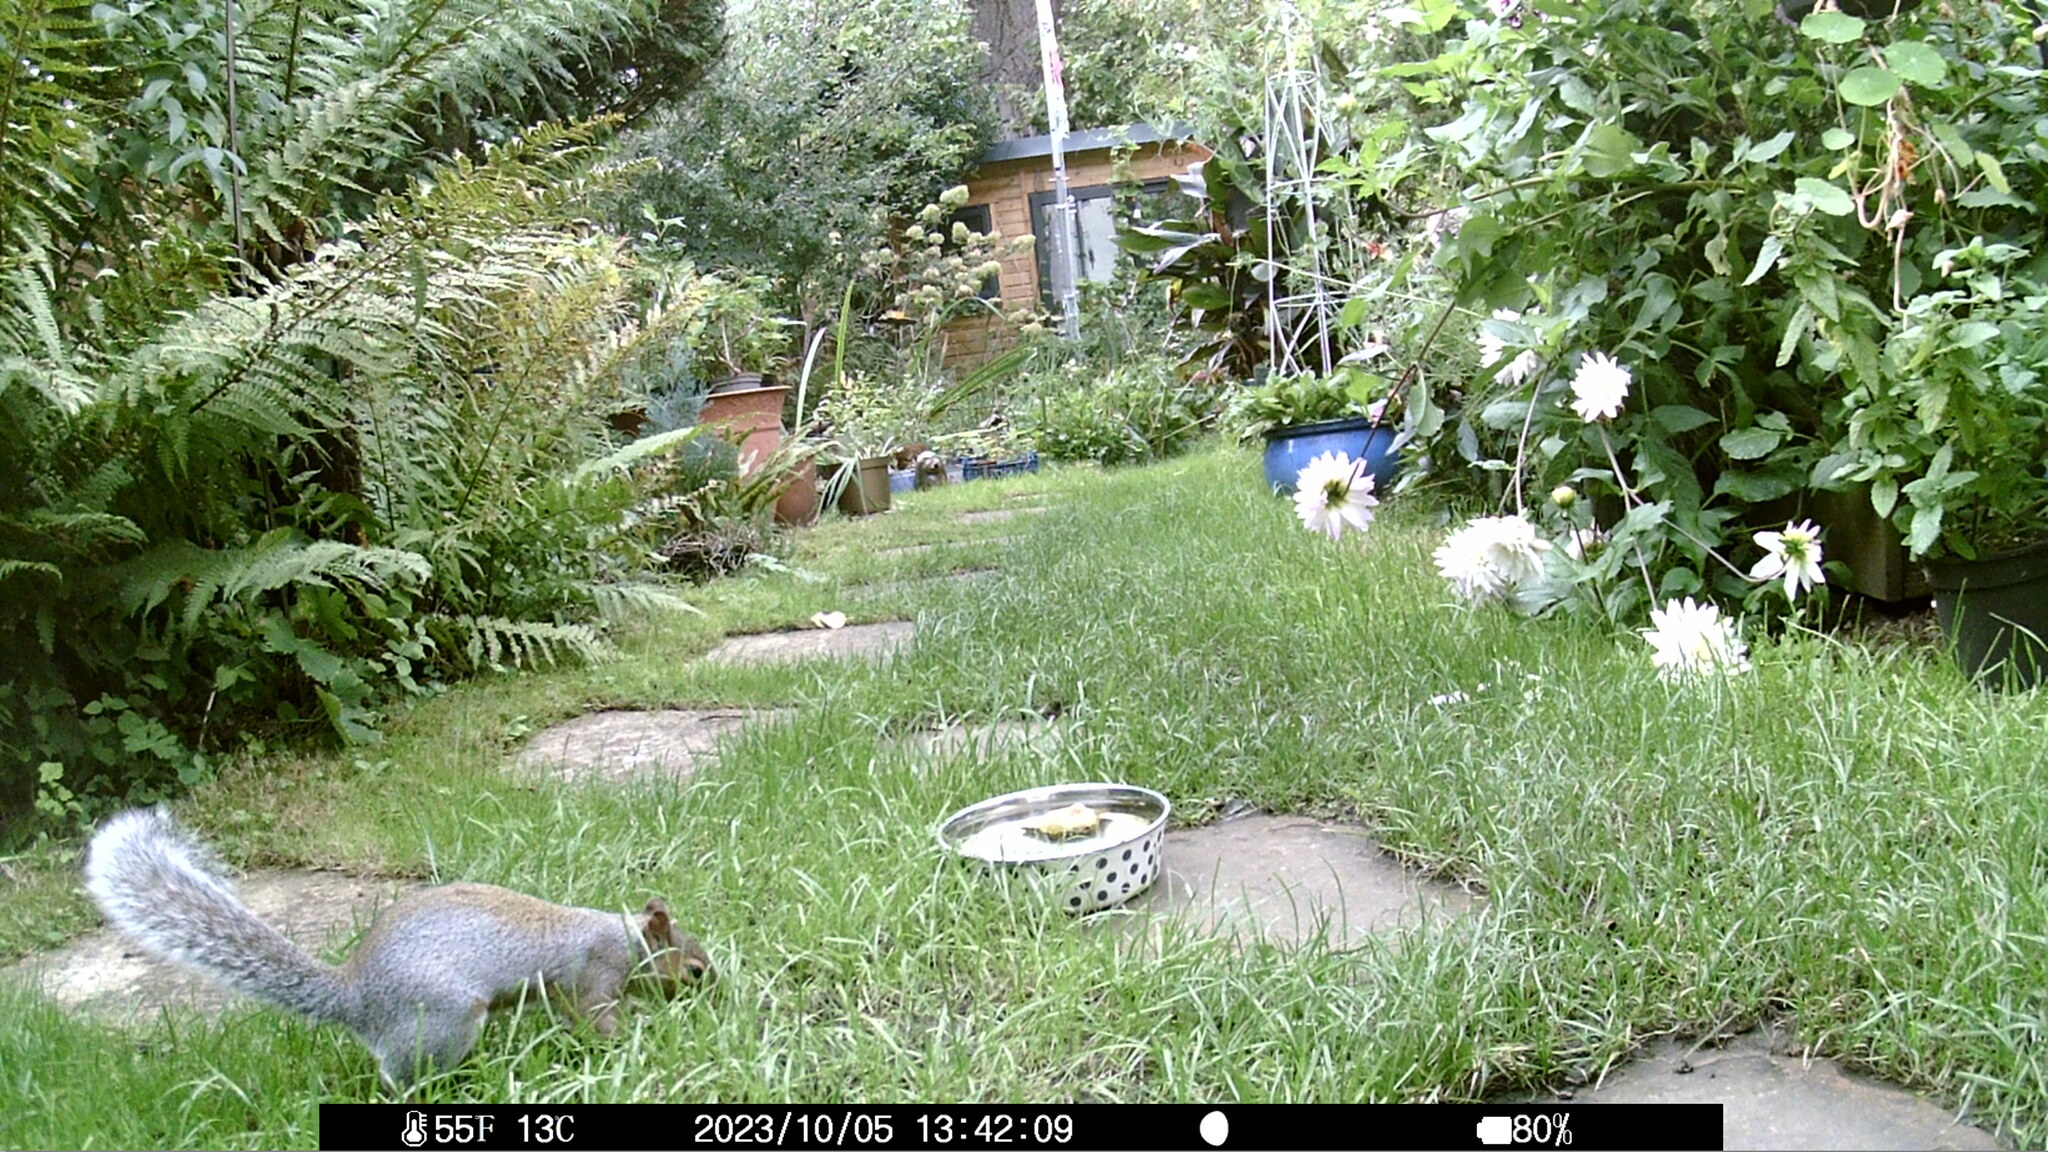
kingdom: Animalia
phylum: Chordata
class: Mammalia
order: Rodentia
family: Sciuridae
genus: Sciurus
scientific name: Sciurus carolinensis
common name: Eastern gray squirrel
